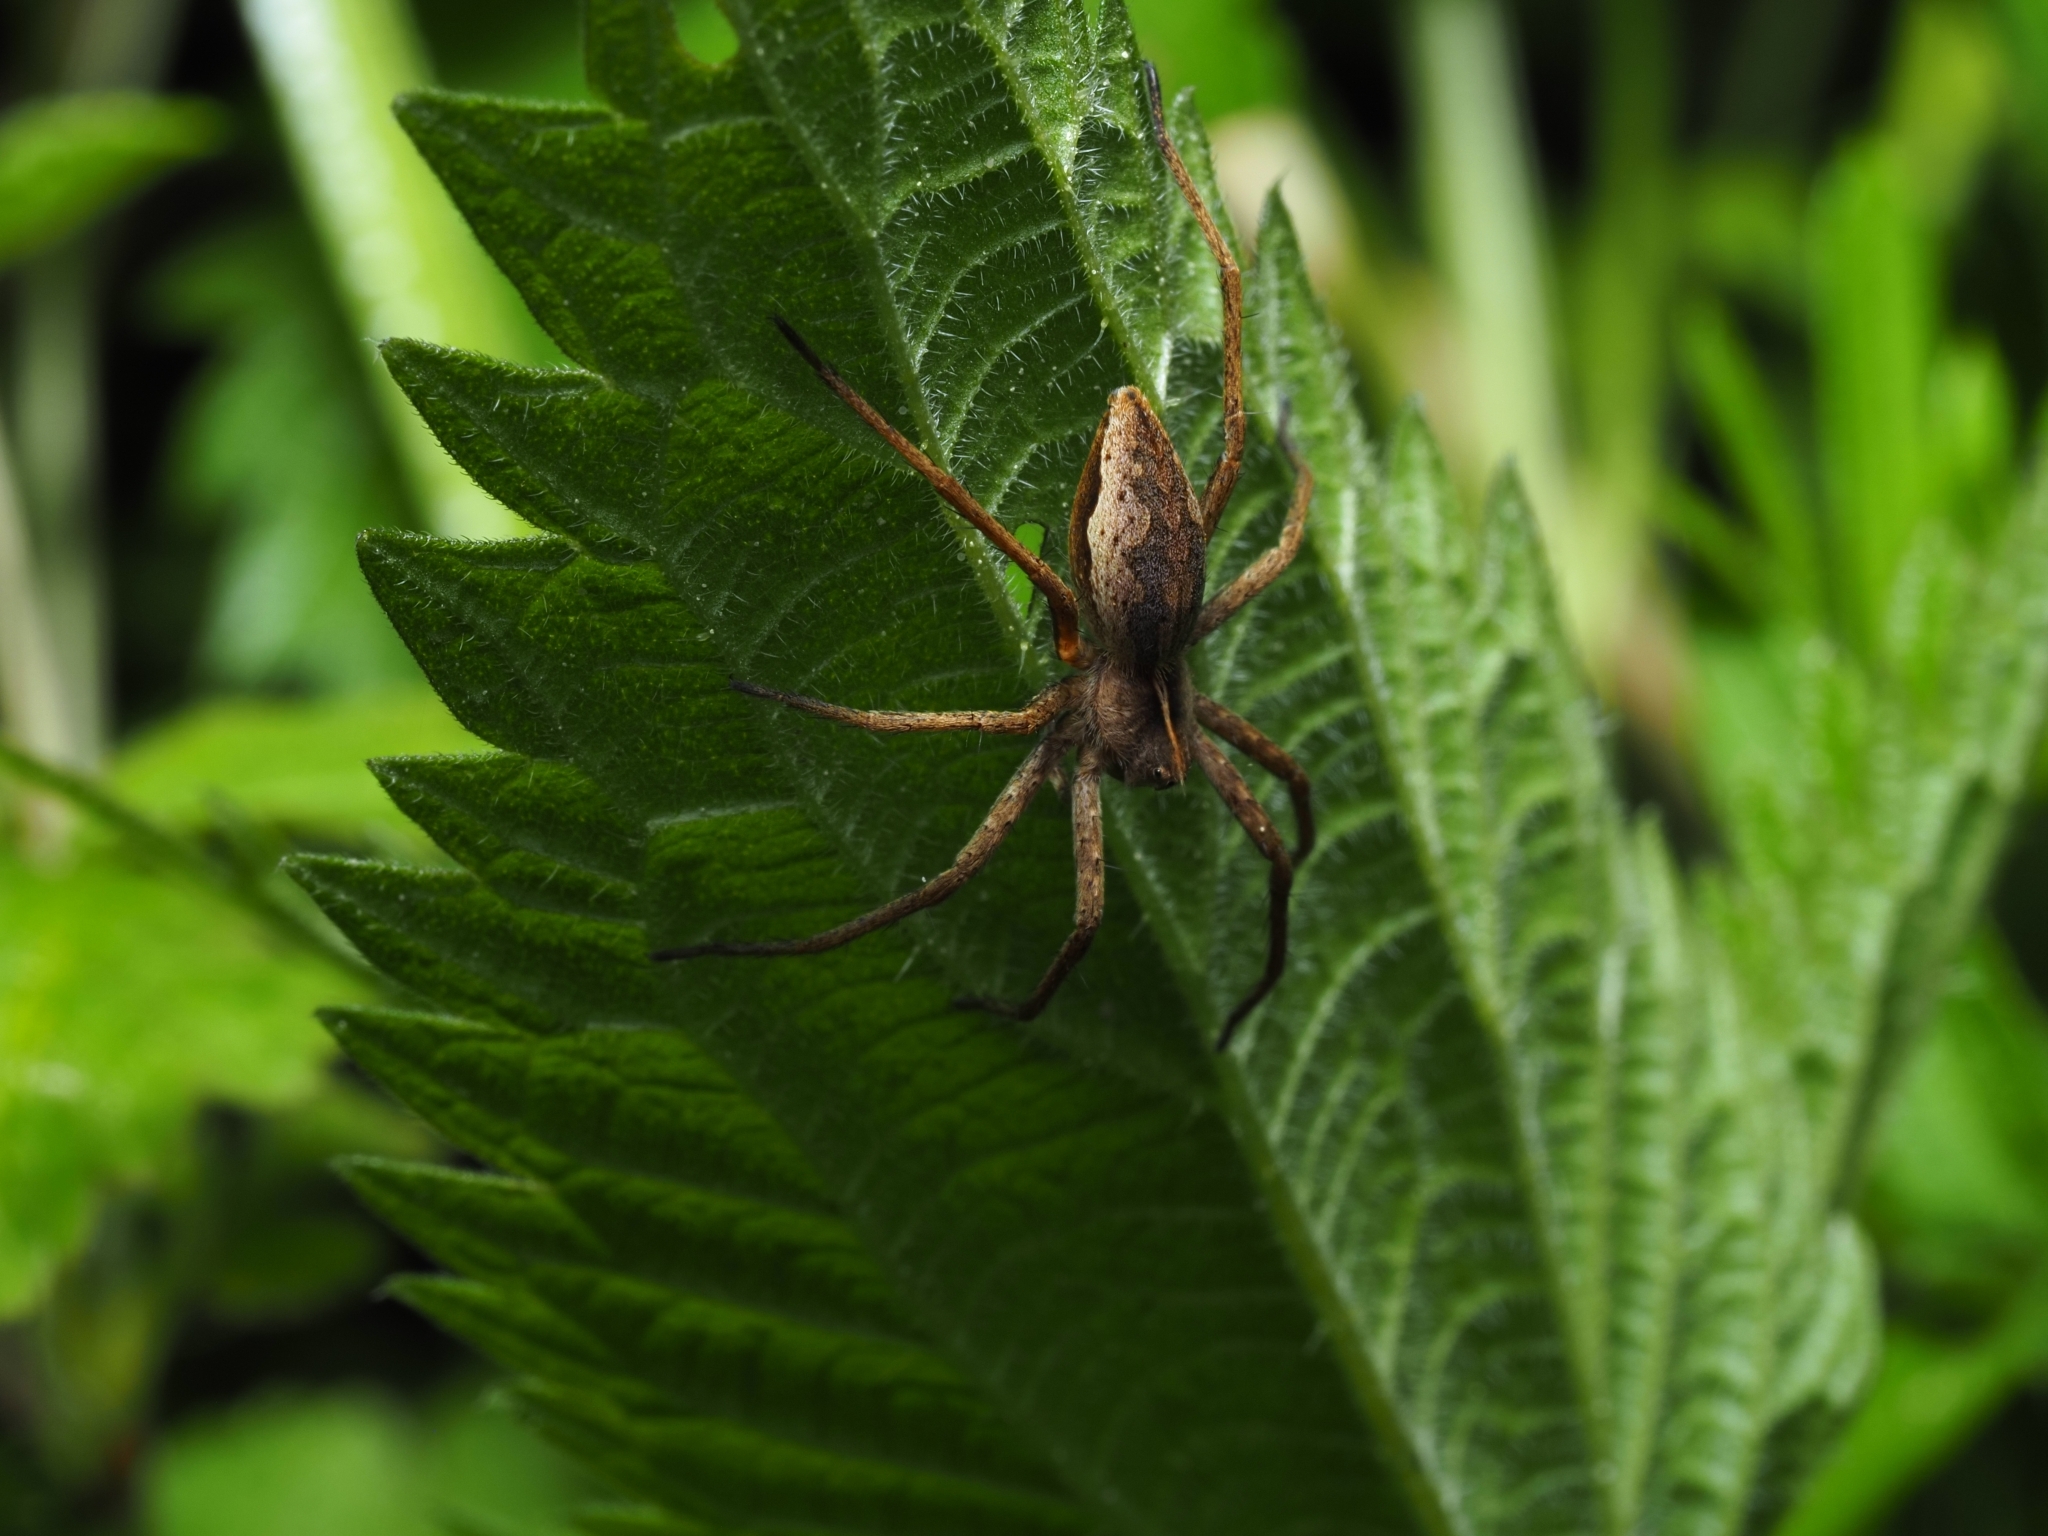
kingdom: Animalia
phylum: Arthropoda
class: Arachnida
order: Araneae
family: Pisauridae
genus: Pisaura
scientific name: Pisaura mirabilis
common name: Tent spider
